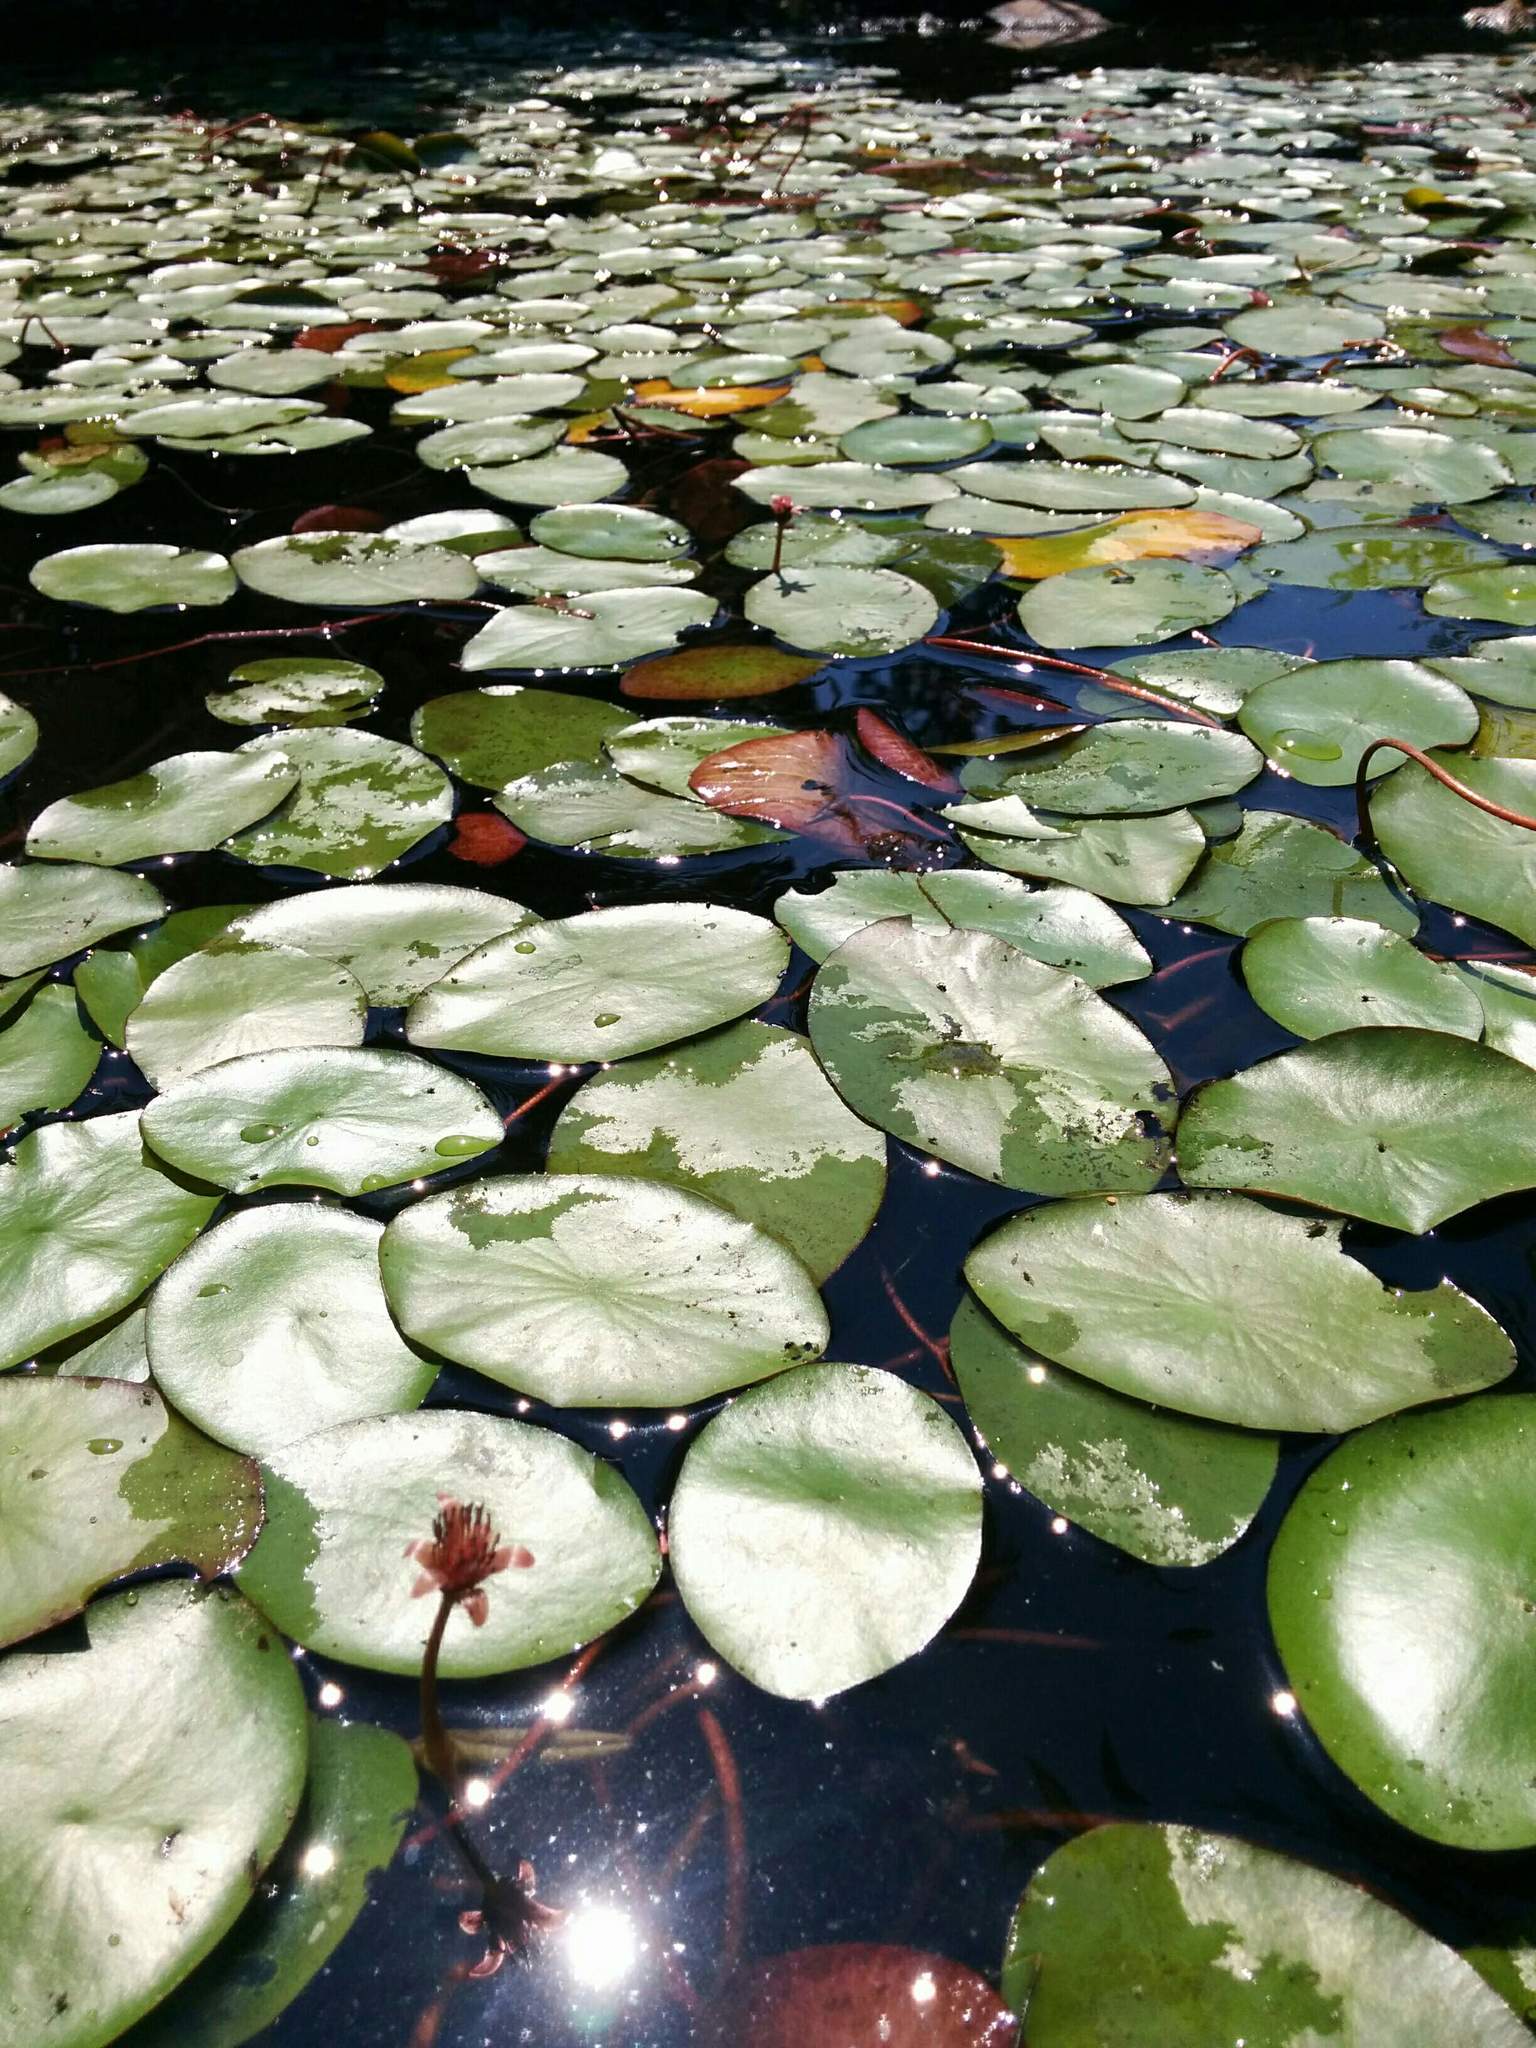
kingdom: Plantae
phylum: Tracheophyta
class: Magnoliopsida
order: Nymphaeales
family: Cabombaceae
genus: Brasenia
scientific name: Brasenia schreberi
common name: Water-shield
